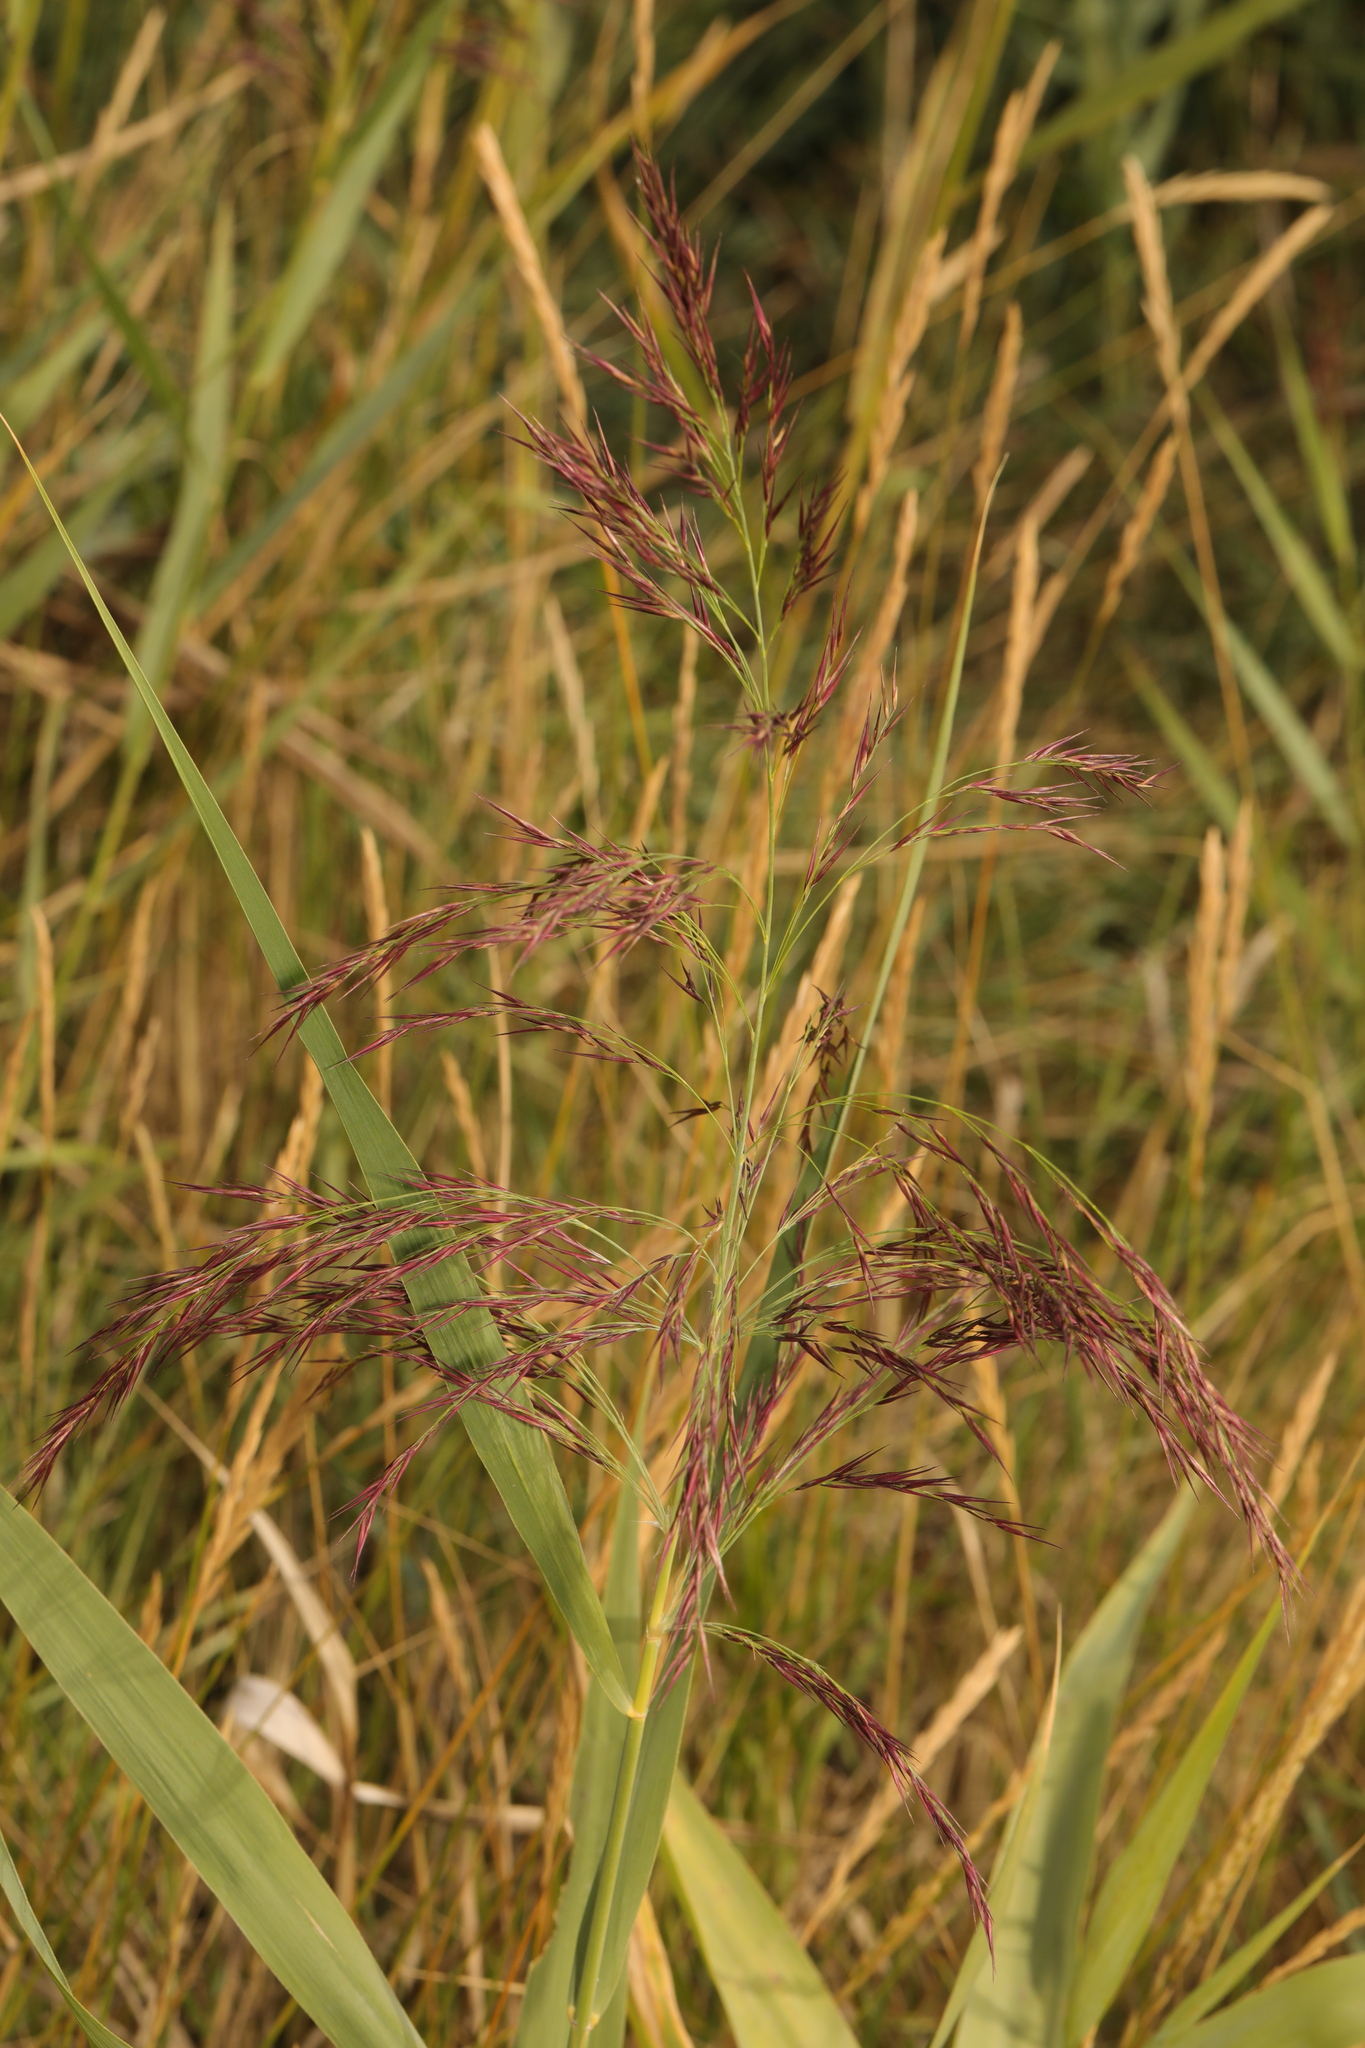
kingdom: Plantae
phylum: Tracheophyta
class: Liliopsida
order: Poales
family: Poaceae
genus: Phragmites
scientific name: Phragmites australis
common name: Common reed
